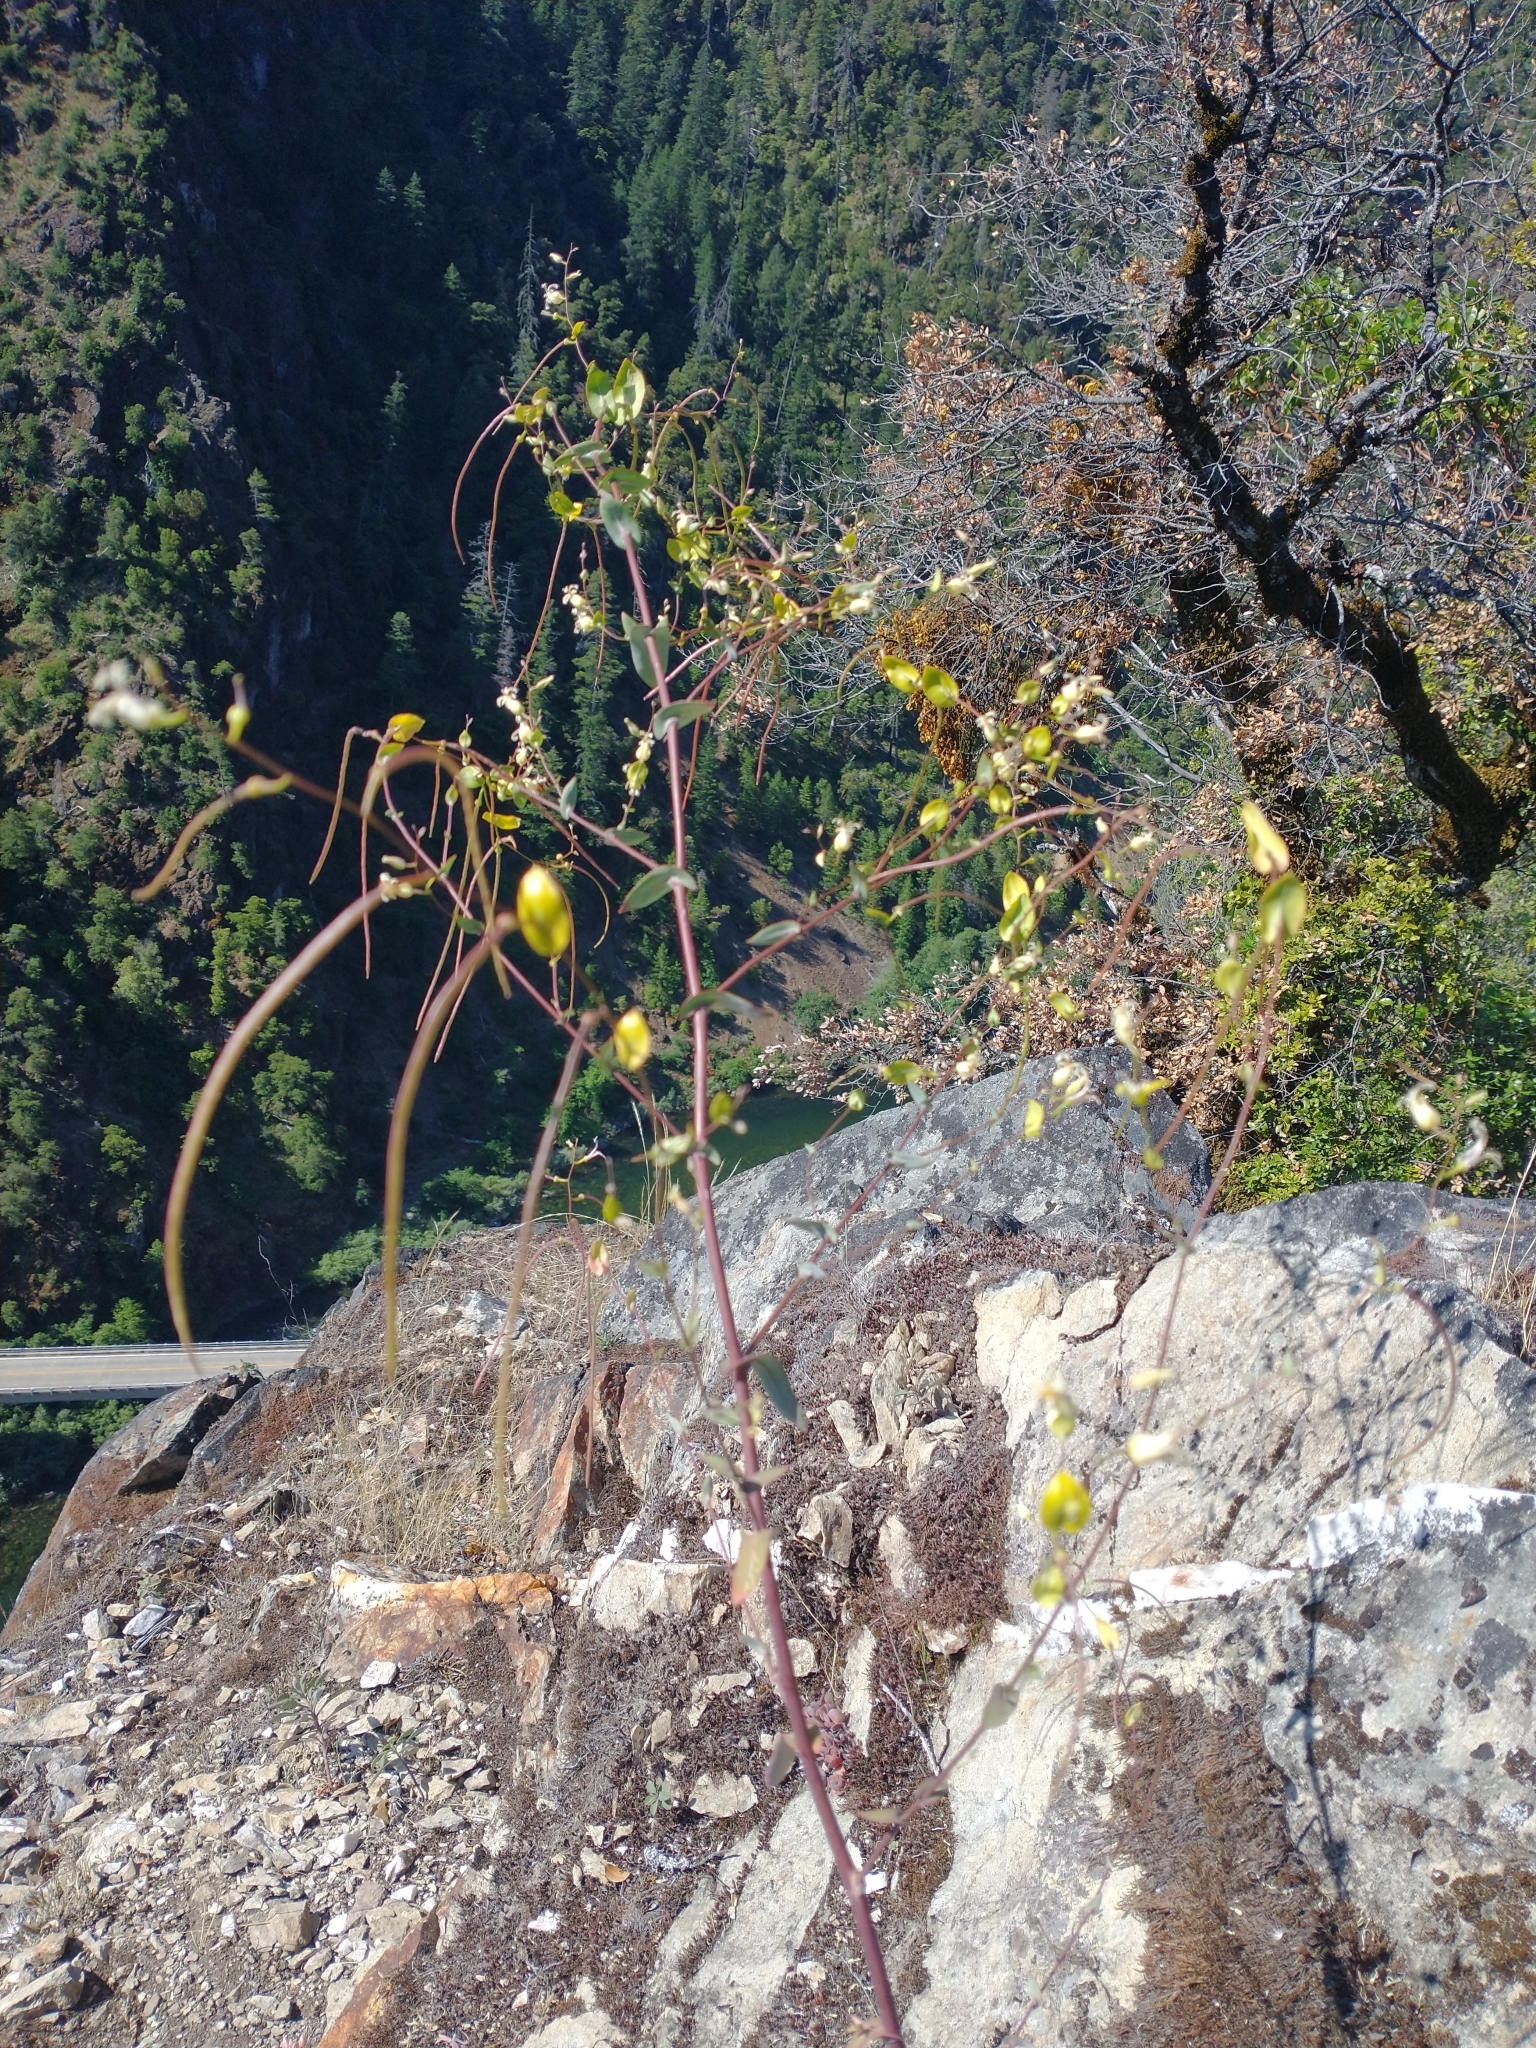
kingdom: Plantae
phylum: Tracheophyta
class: Magnoliopsida
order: Brassicales
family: Brassicaceae
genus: Streptanthus
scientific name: Streptanthus tortuosus
